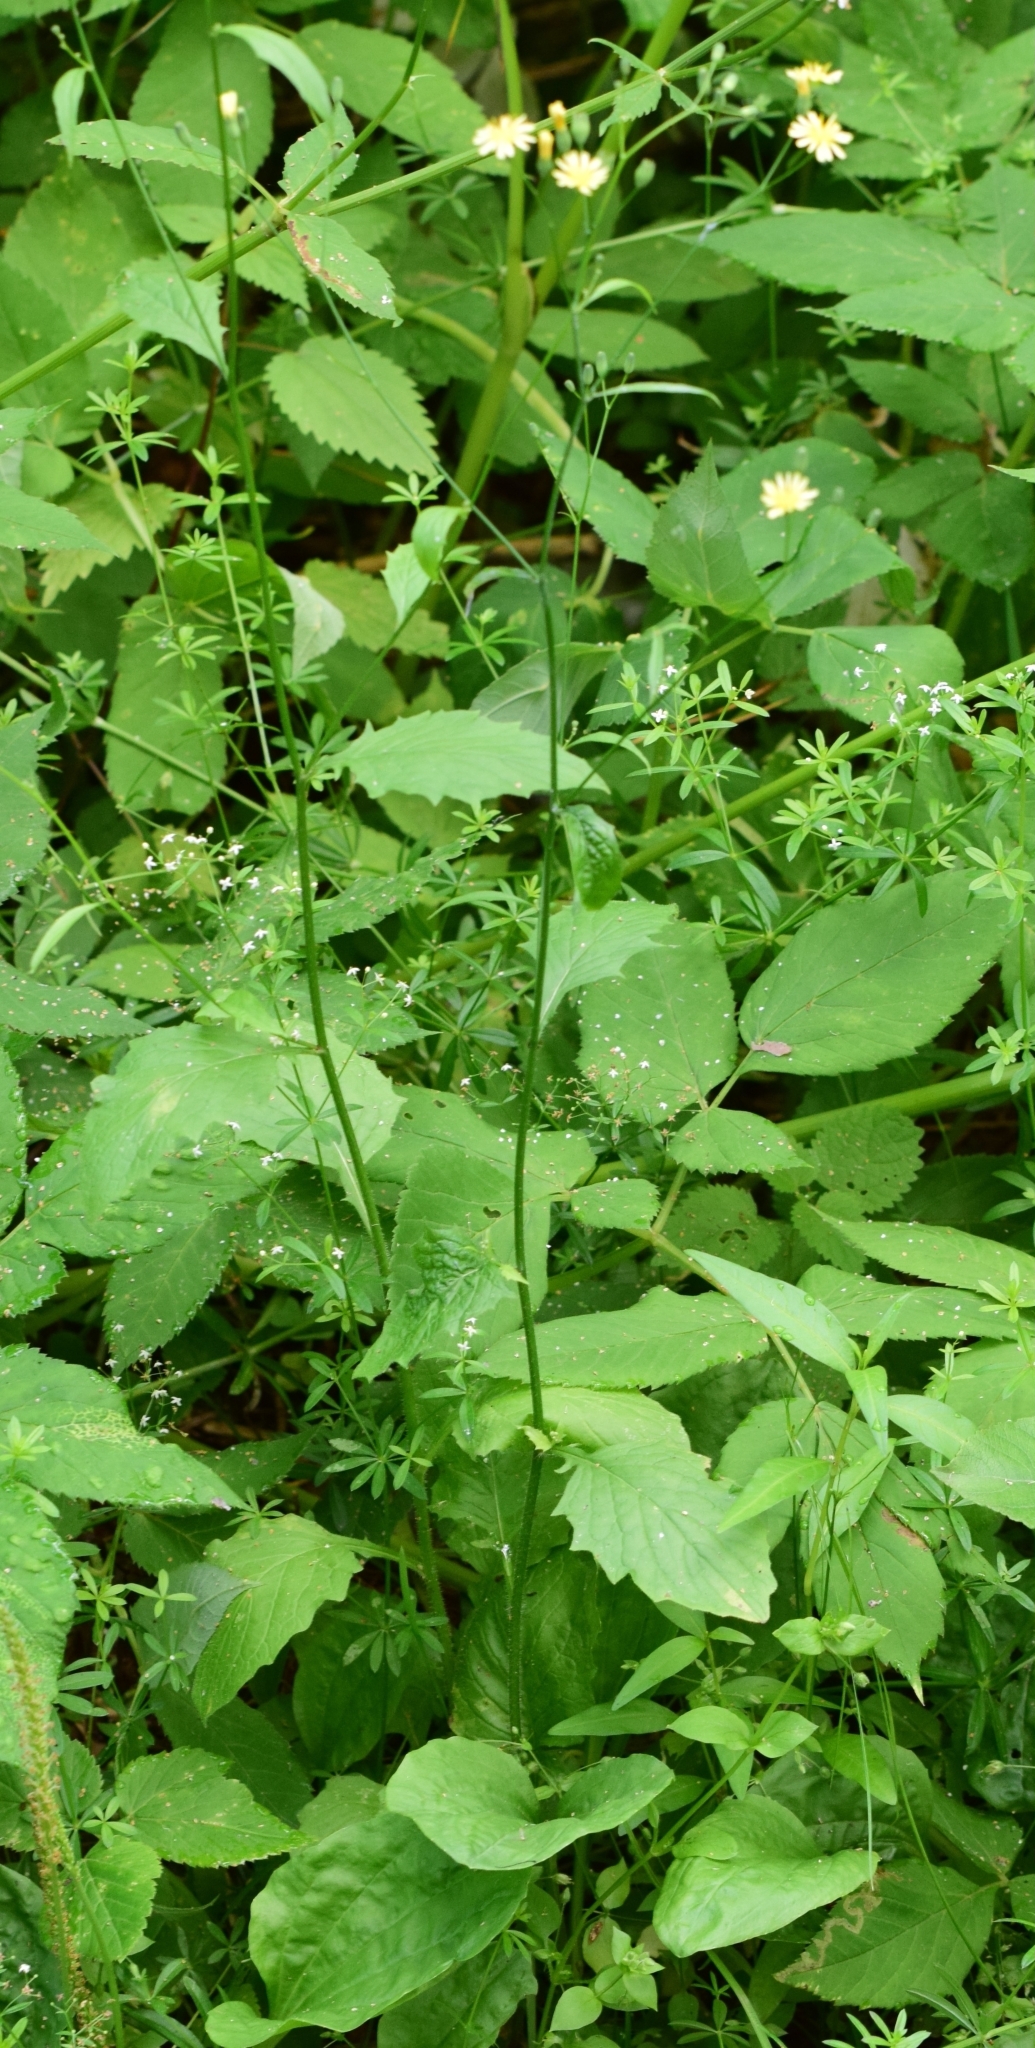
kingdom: Plantae
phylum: Tracheophyta
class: Magnoliopsida
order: Asterales
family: Asteraceae
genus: Lapsana
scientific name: Lapsana communis
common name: Nipplewort
